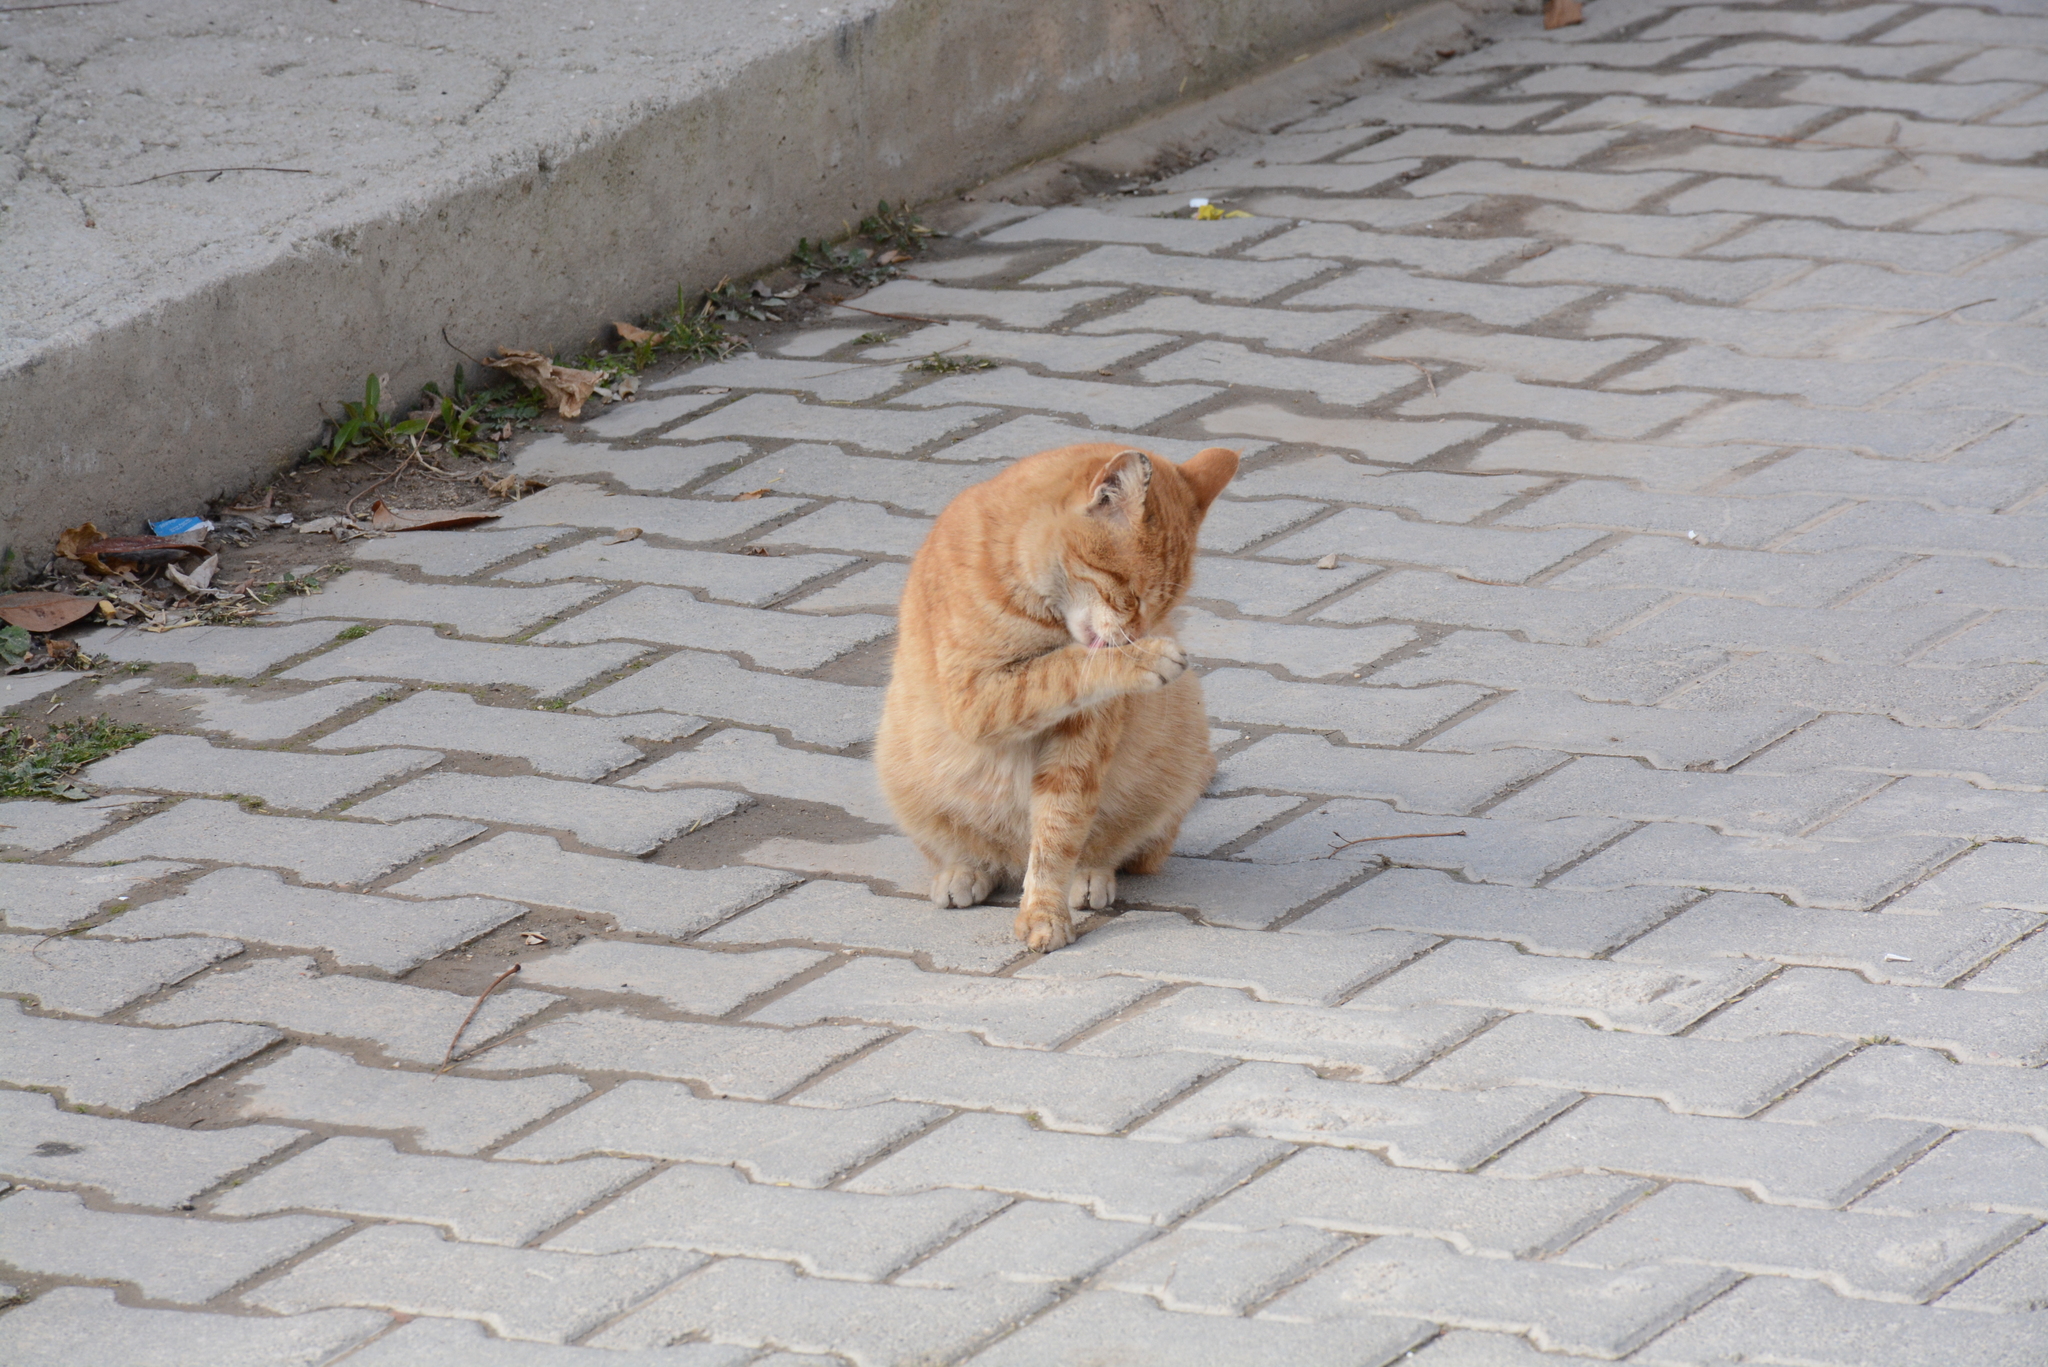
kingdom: Animalia
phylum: Chordata
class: Mammalia
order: Carnivora
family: Felidae
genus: Felis
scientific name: Felis catus
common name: Domestic cat
